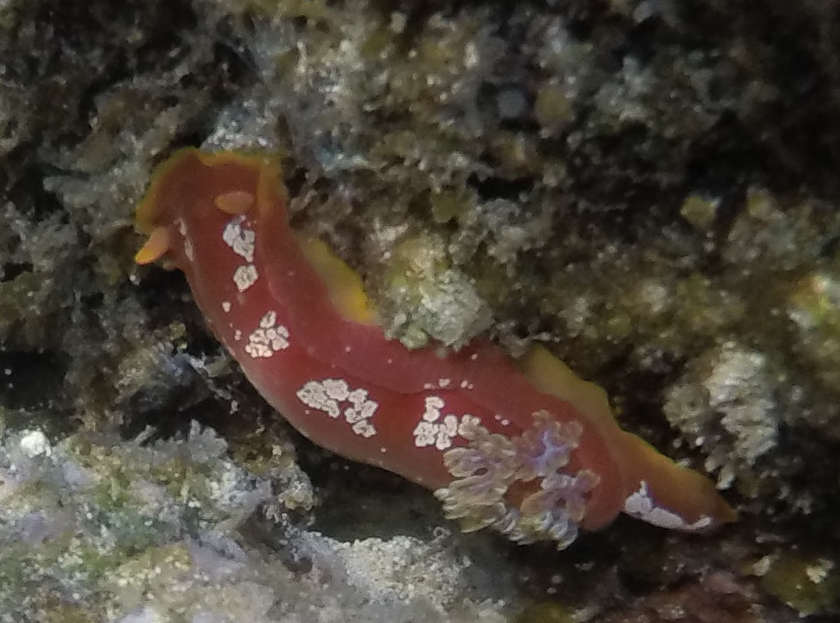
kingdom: Animalia
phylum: Mollusca
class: Gastropoda
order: Nudibranchia
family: Hexabranchidae
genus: Hexabranchus
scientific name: Hexabranchus aureomarginatus
